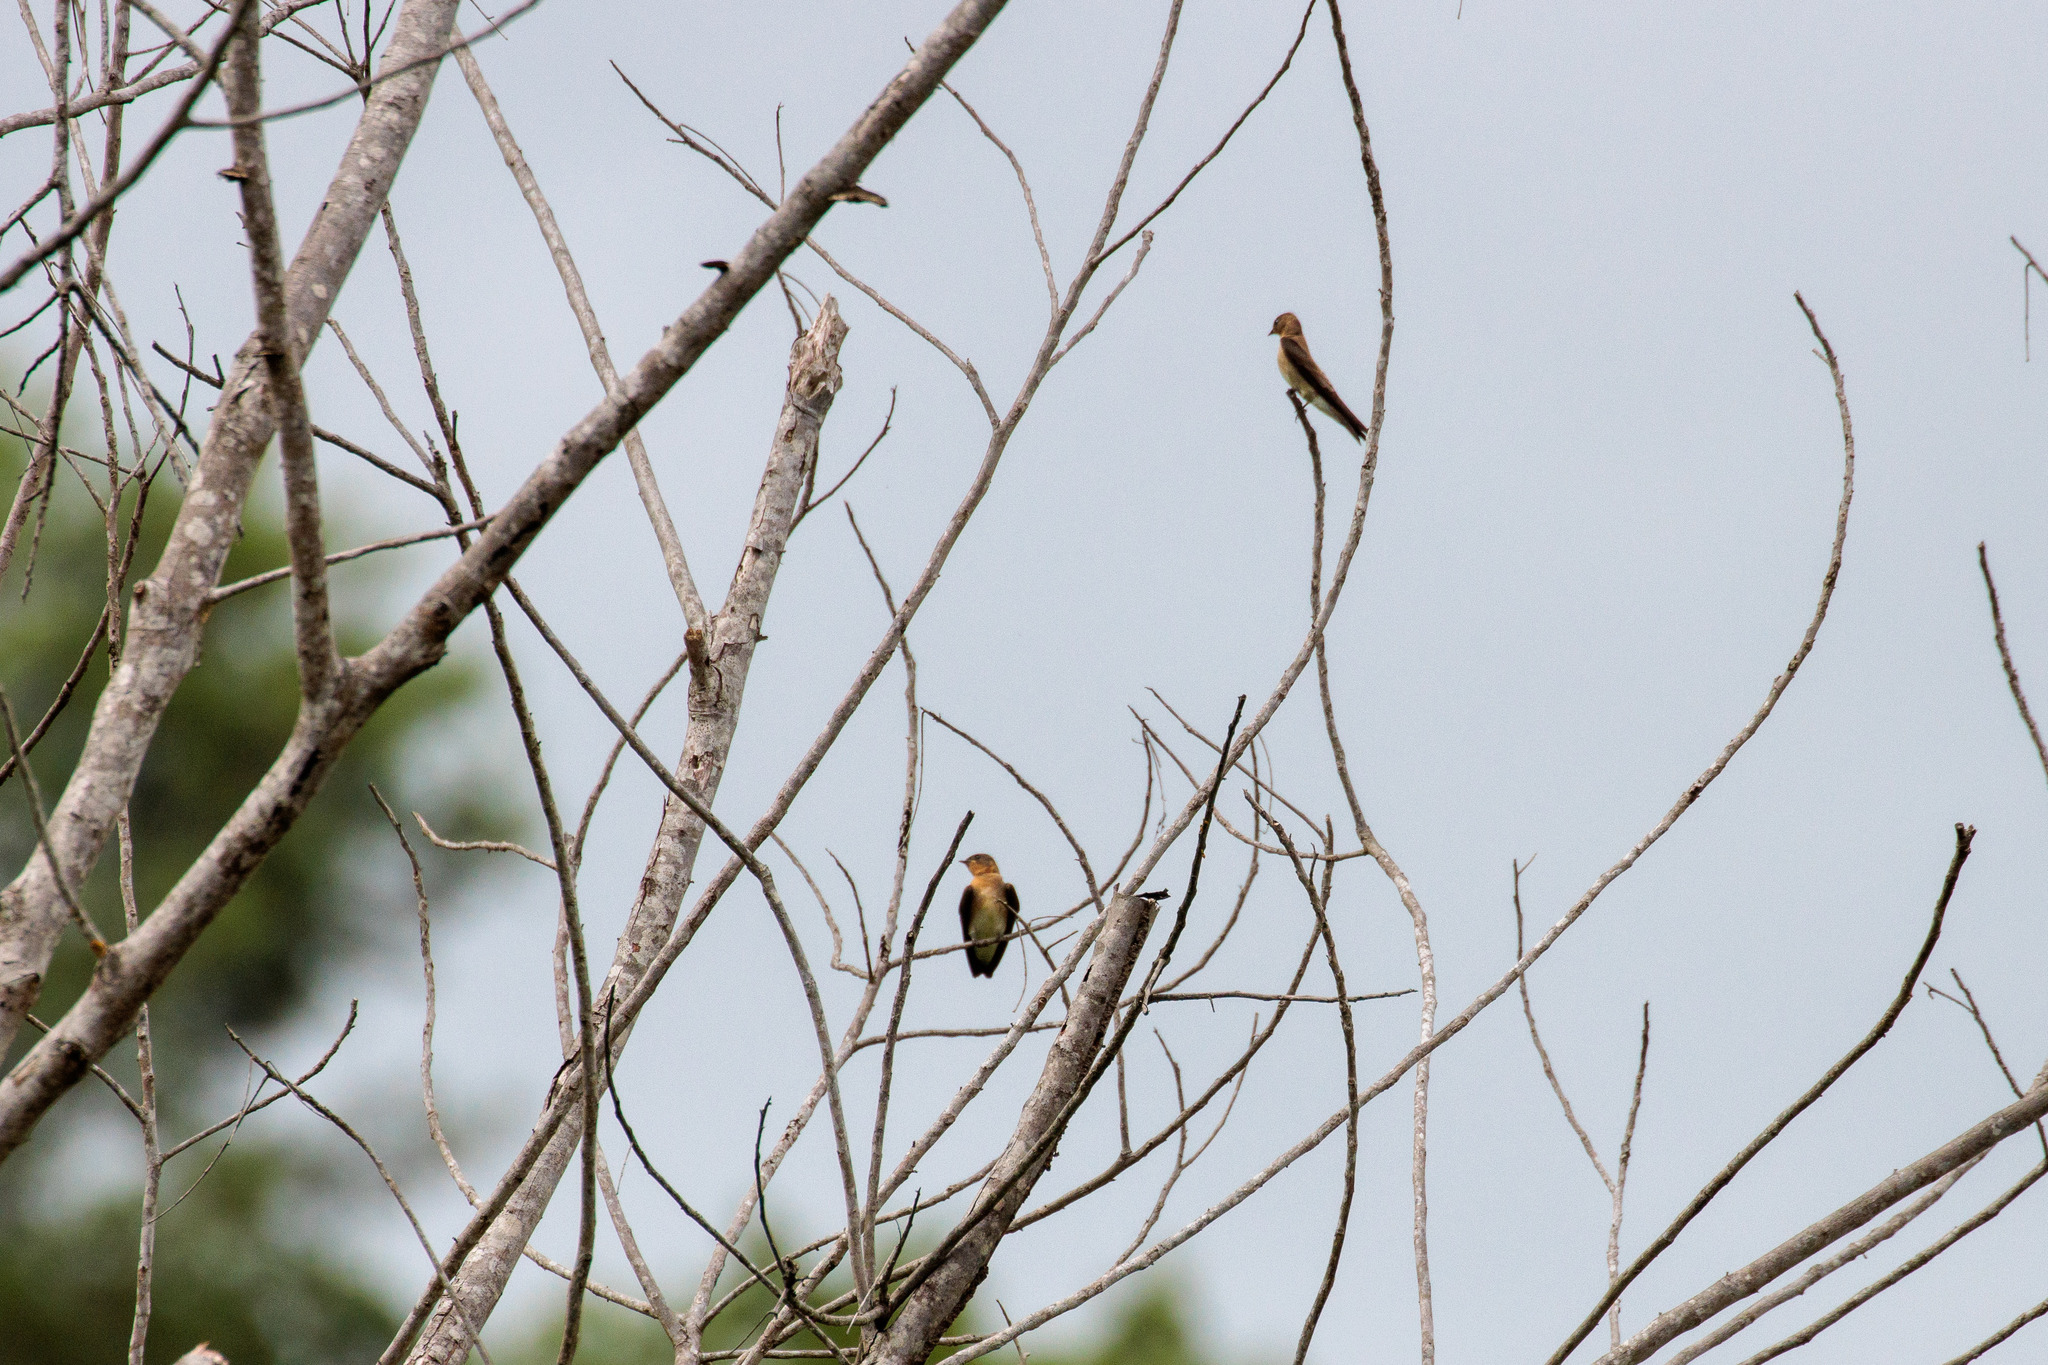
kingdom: Animalia
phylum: Chordata
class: Aves
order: Passeriformes
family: Hirundinidae
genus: Stelgidopteryx
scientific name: Stelgidopteryx ruficollis
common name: Southern rough-winged swallow
